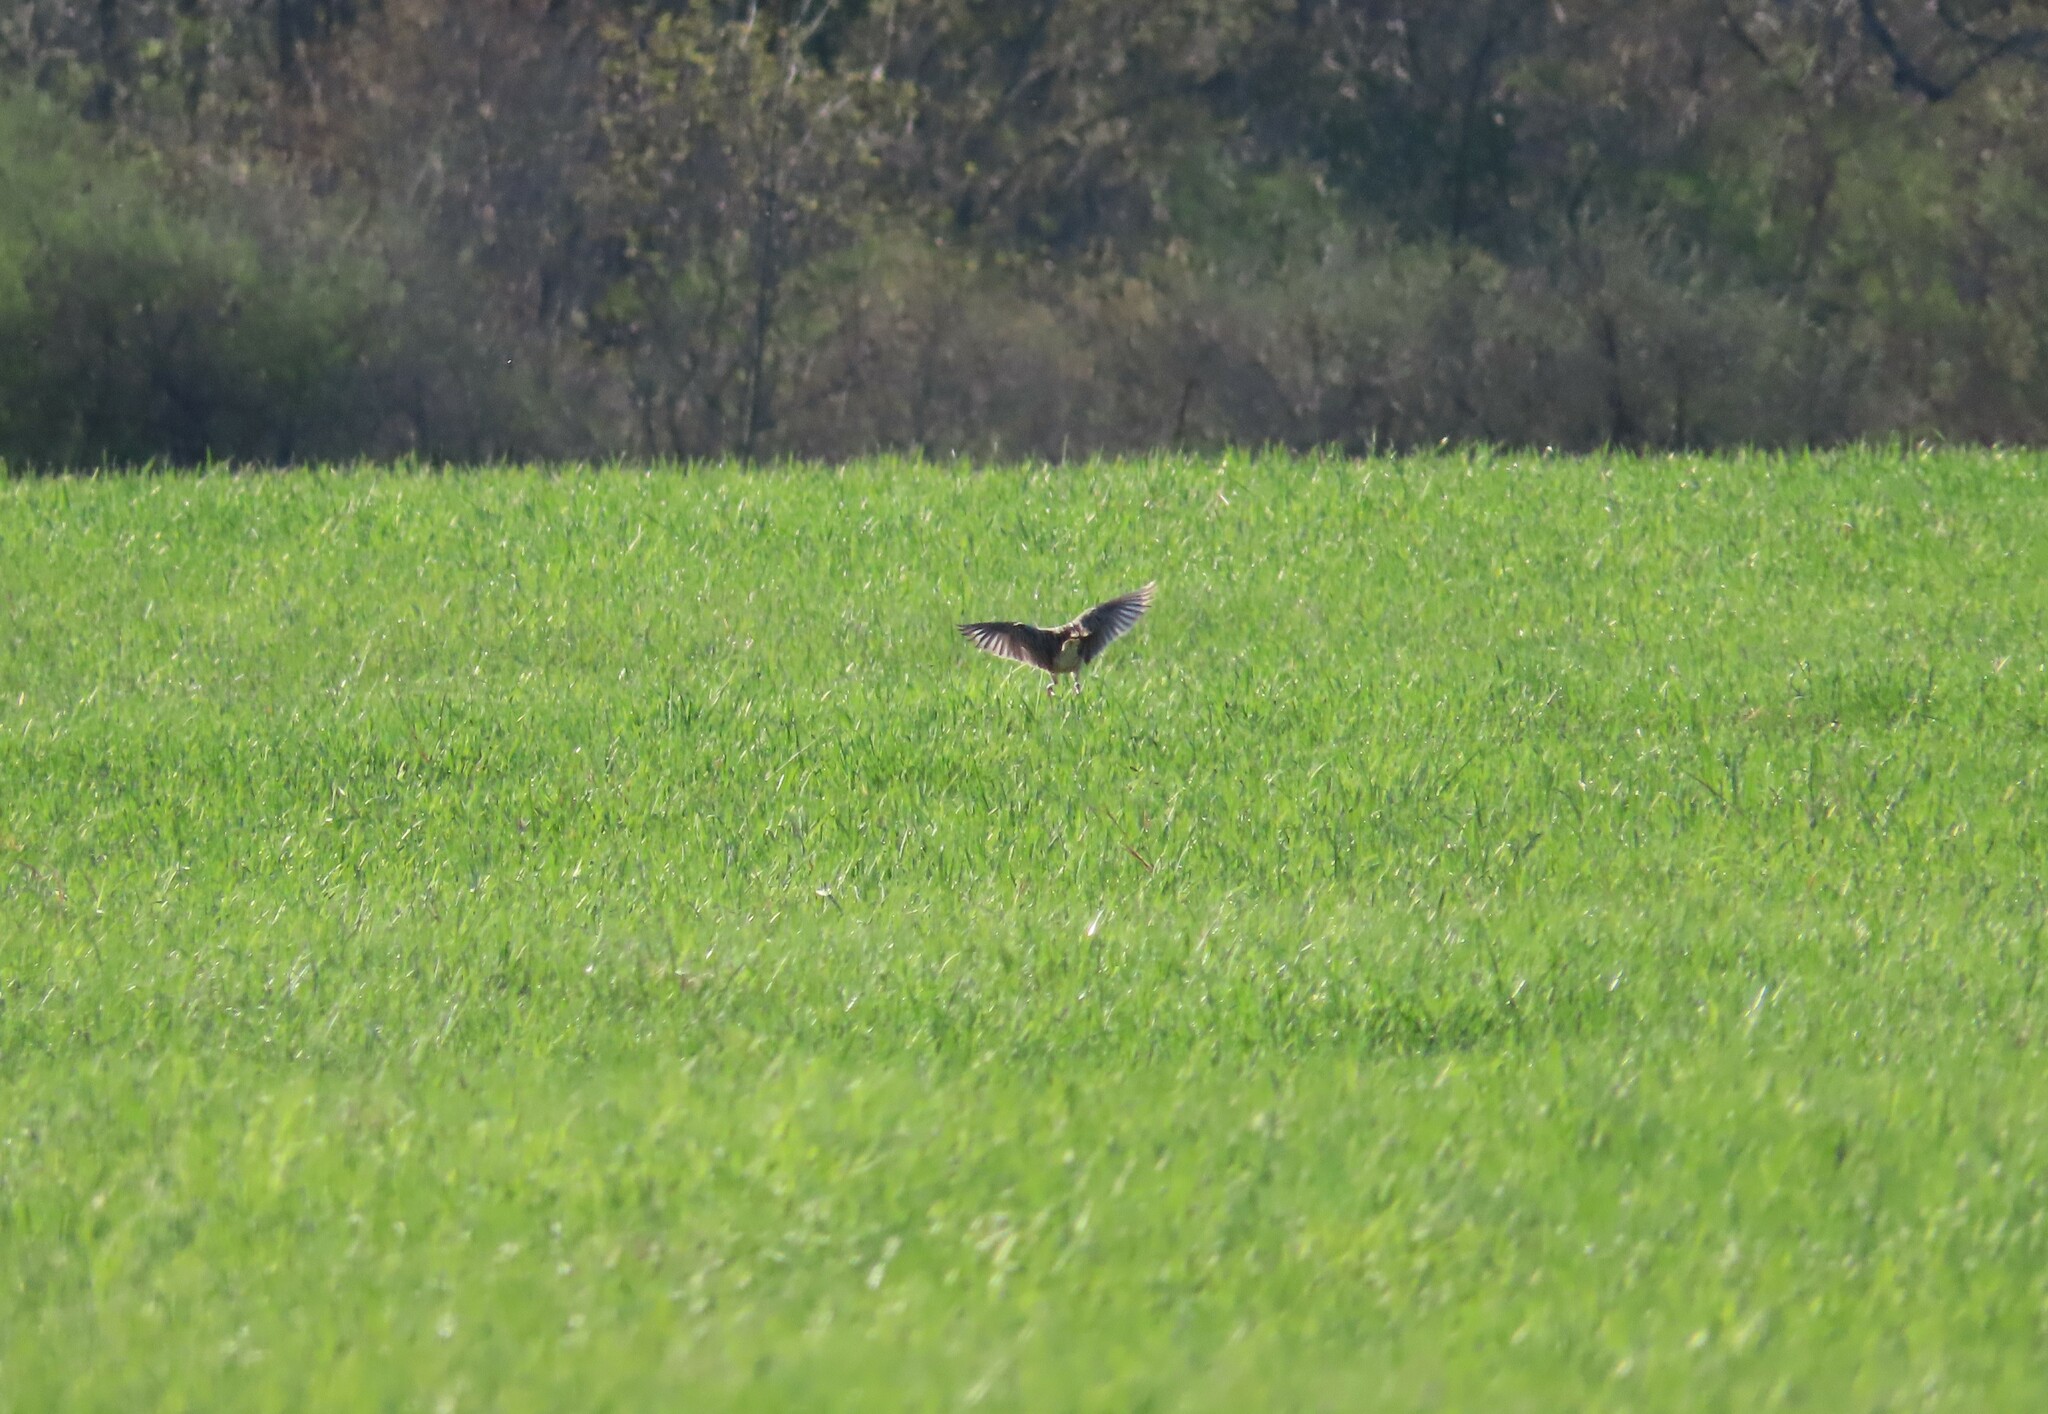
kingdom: Animalia
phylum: Chordata
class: Aves
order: Passeriformes
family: Icteridae
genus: Sturnella
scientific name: Sturnella magna
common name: Eastern meadowlark
